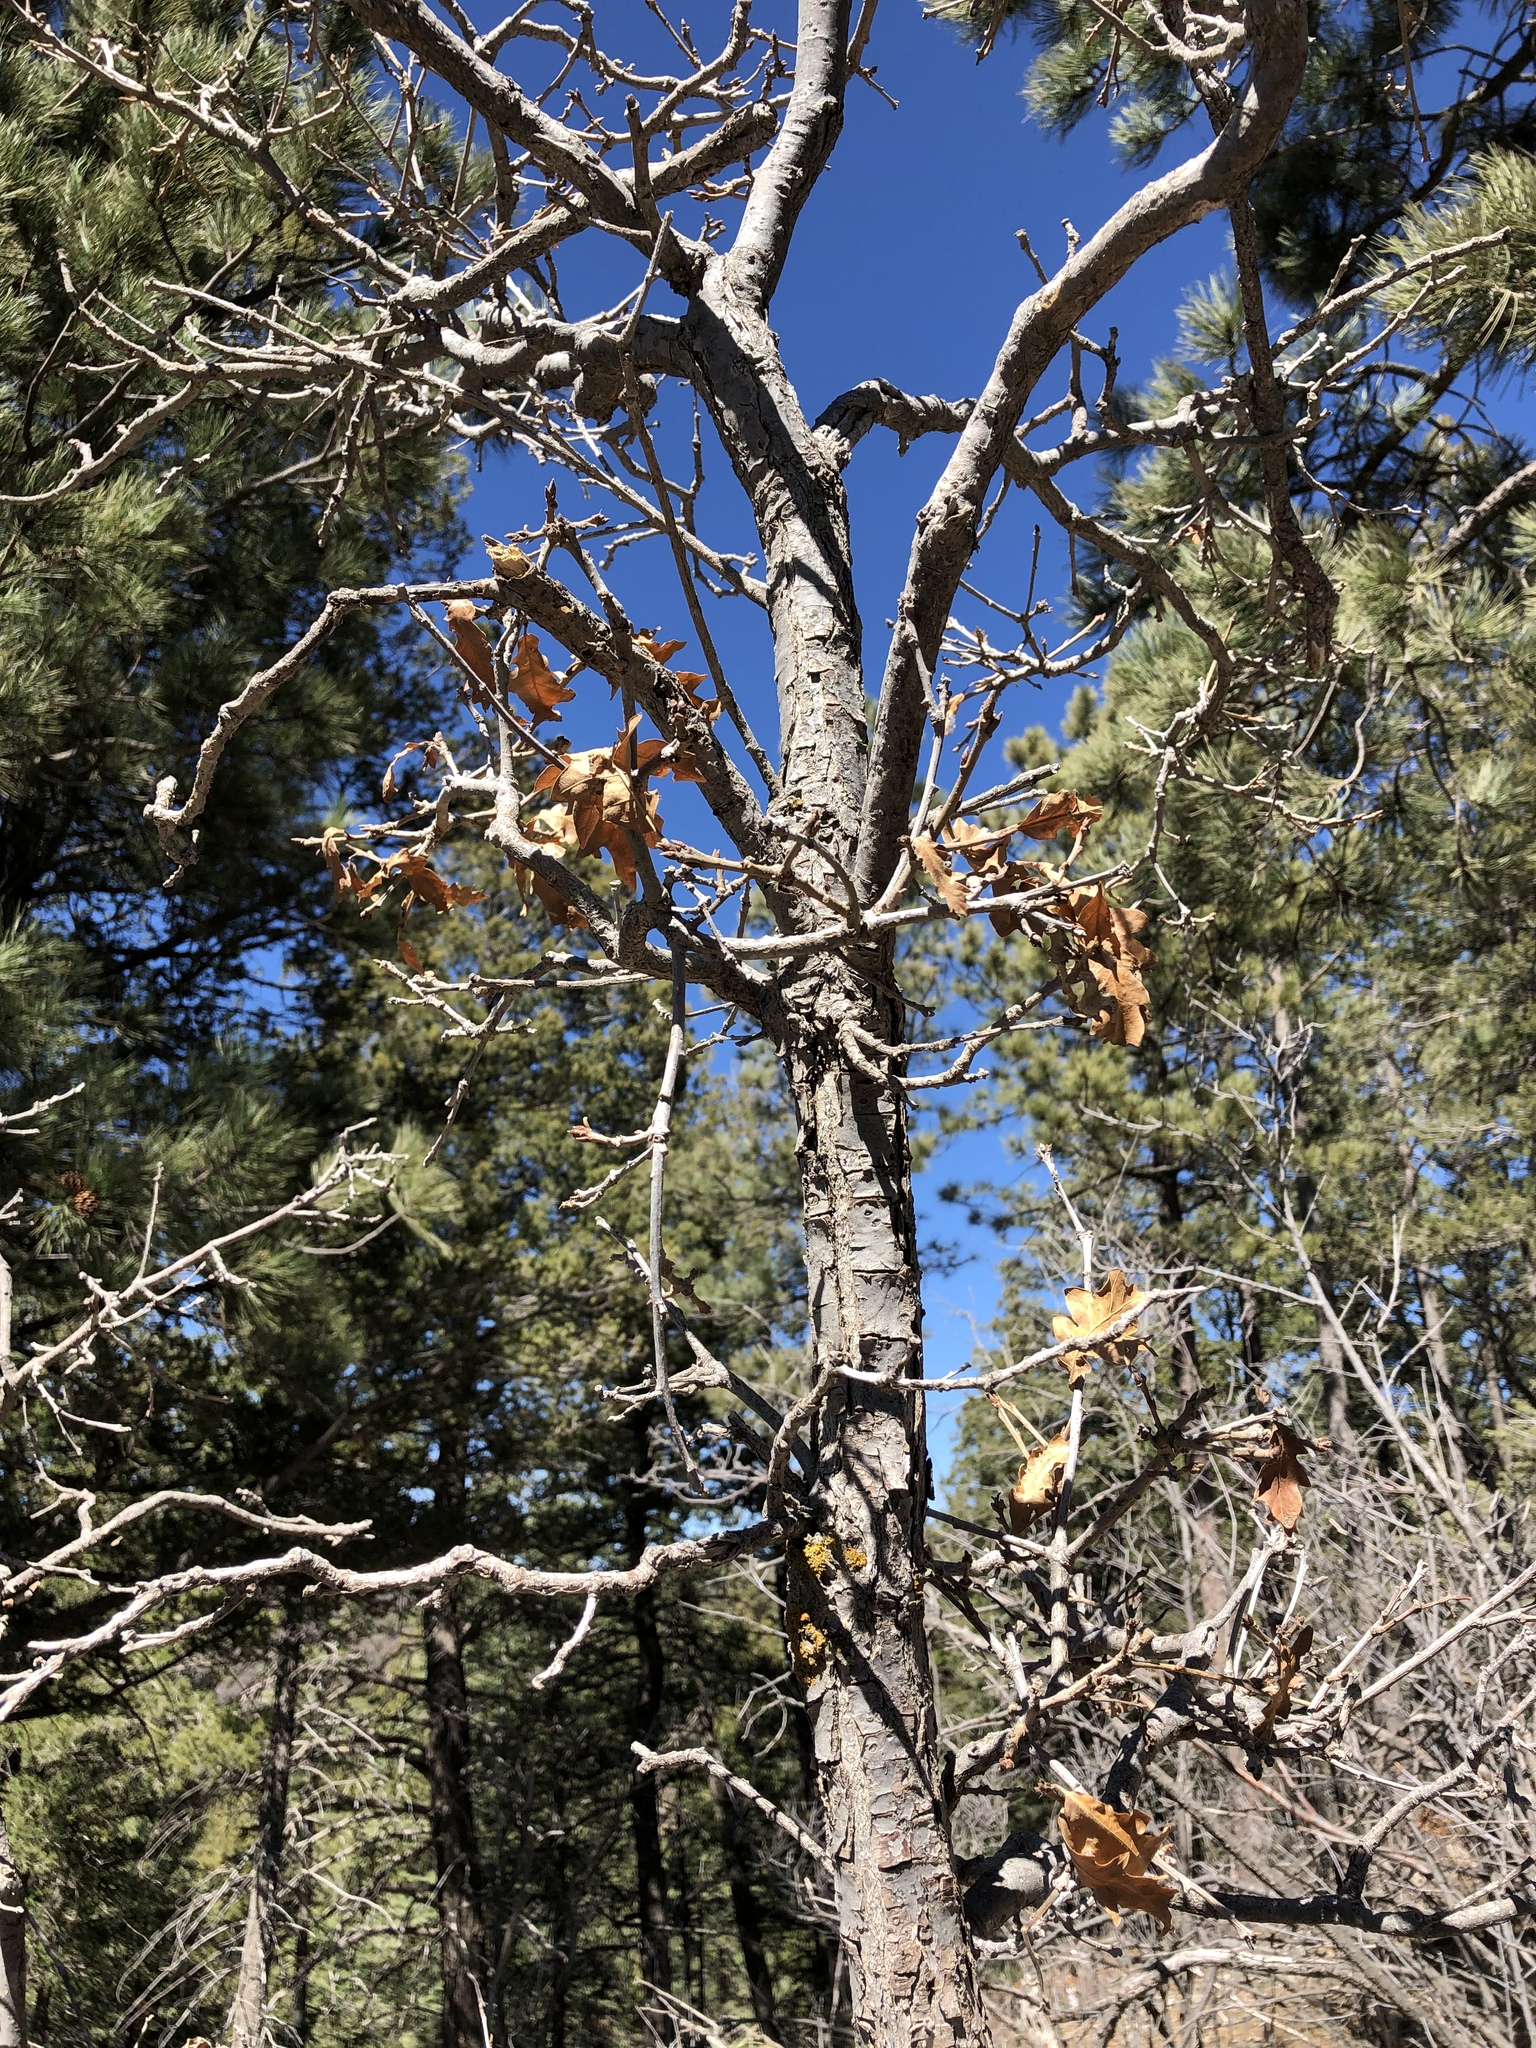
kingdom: Plantae
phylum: Tracheophyta
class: Magnoliopsida
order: Fagales
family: Fagaceae
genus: Quercus
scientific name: Quercus gambelii
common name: Gambel oak
